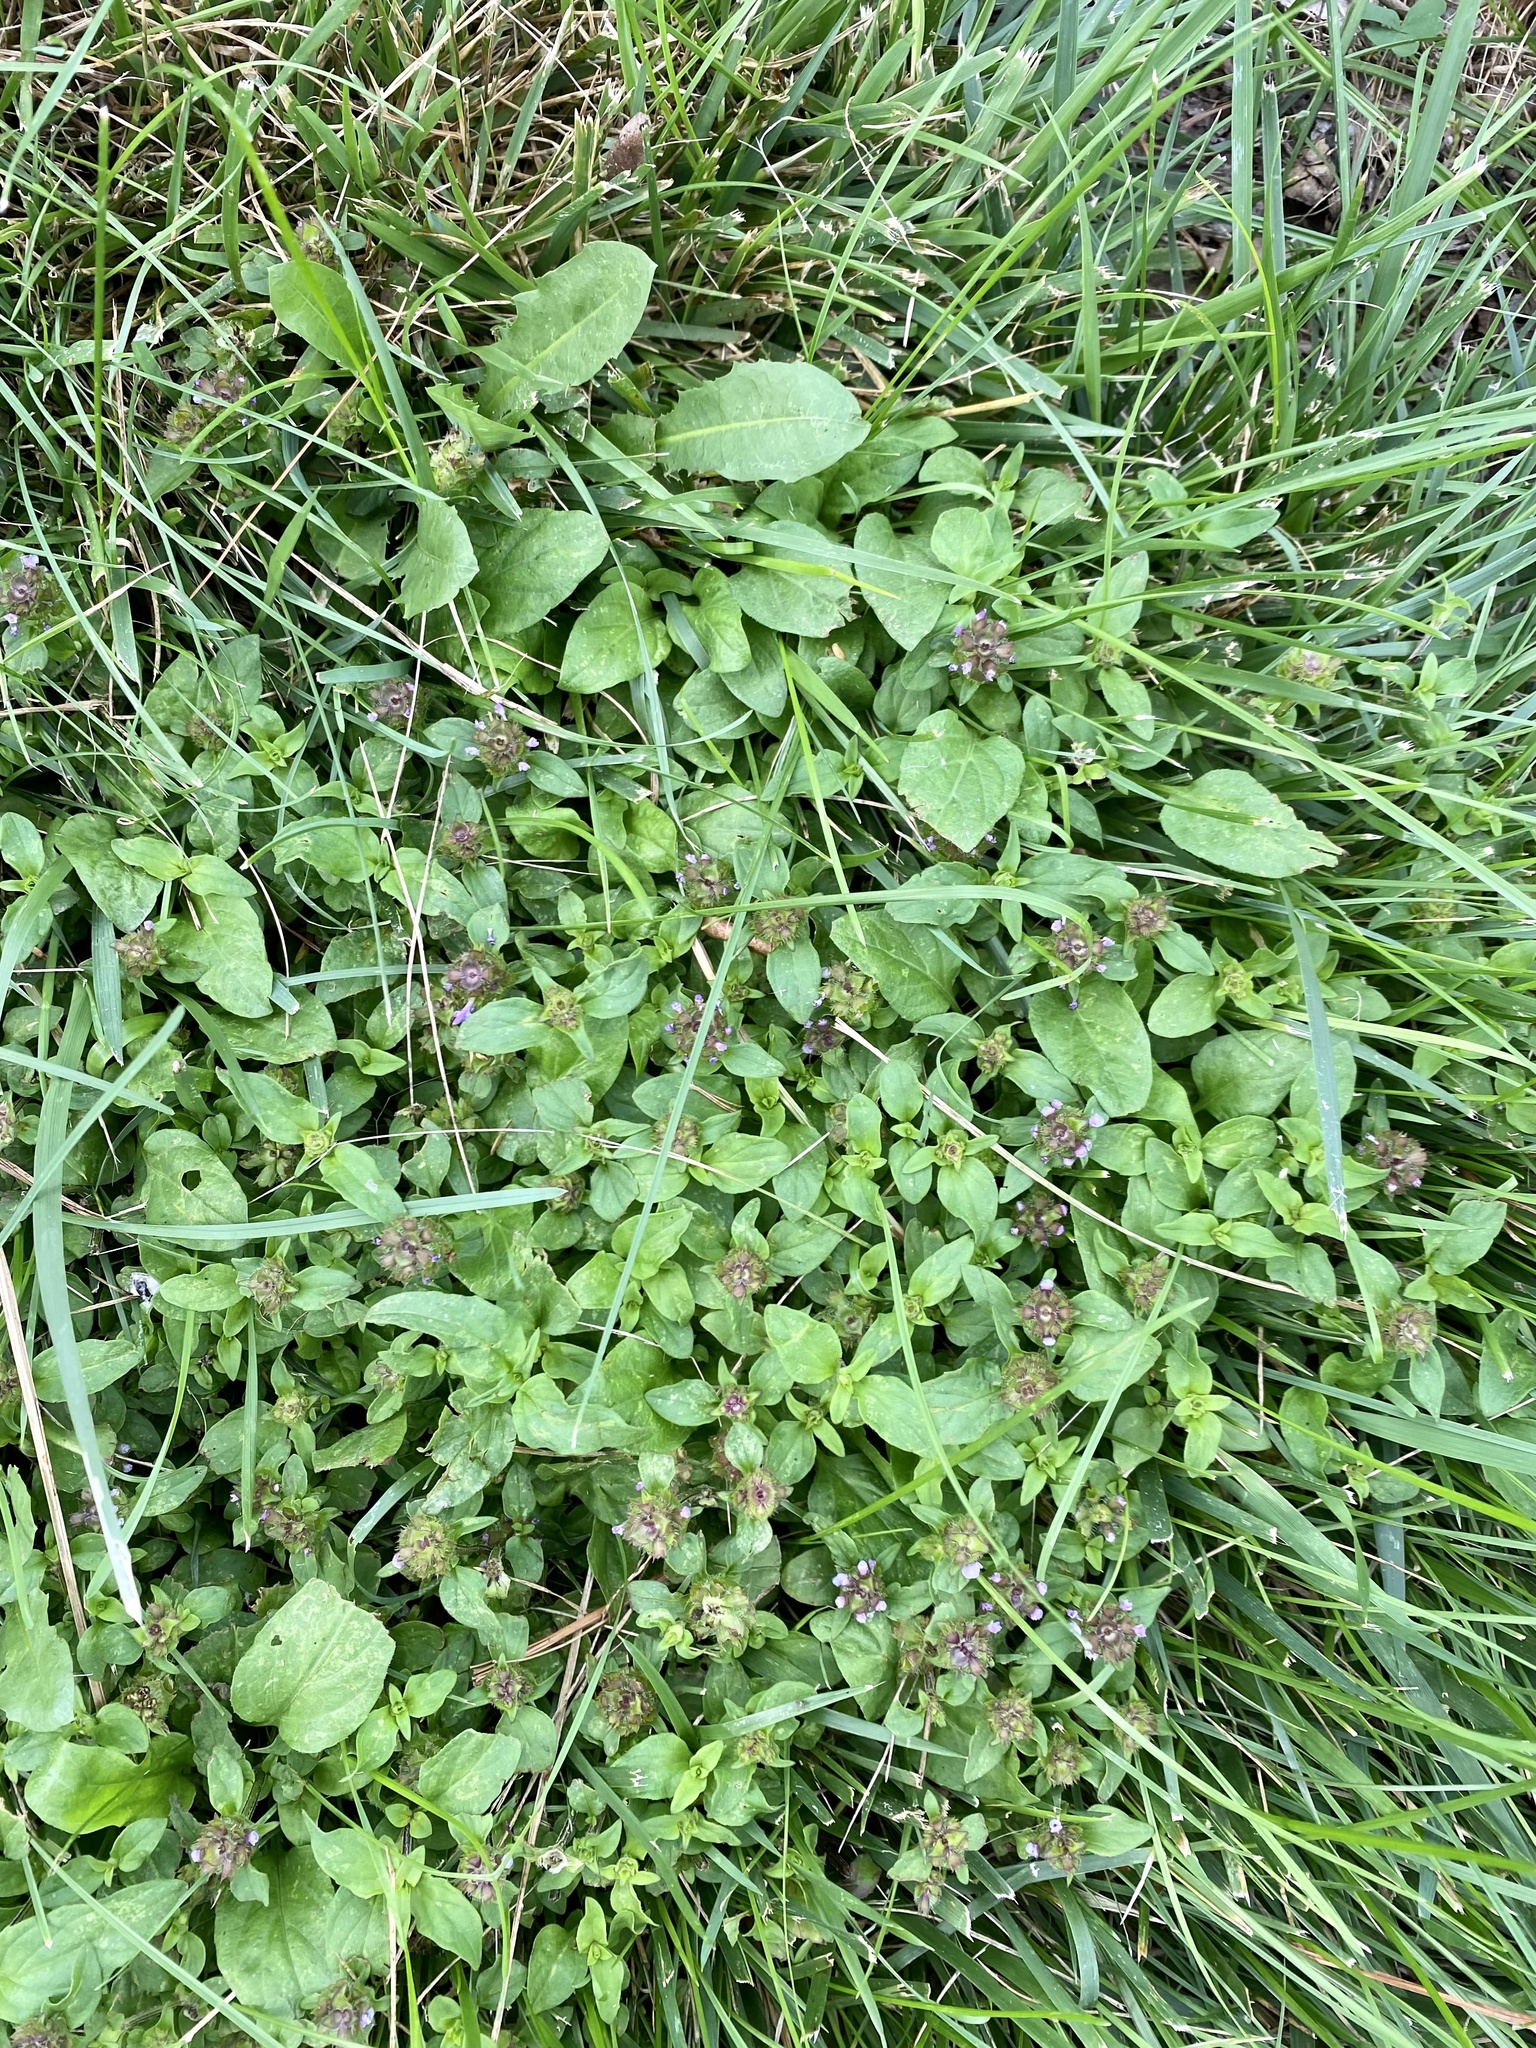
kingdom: Plantae
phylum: Tracheophyta
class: Magnoliopsida
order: Lamiales
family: Lamiaceae
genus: Prunella
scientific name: Prunella vulgaris
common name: Heal-all
